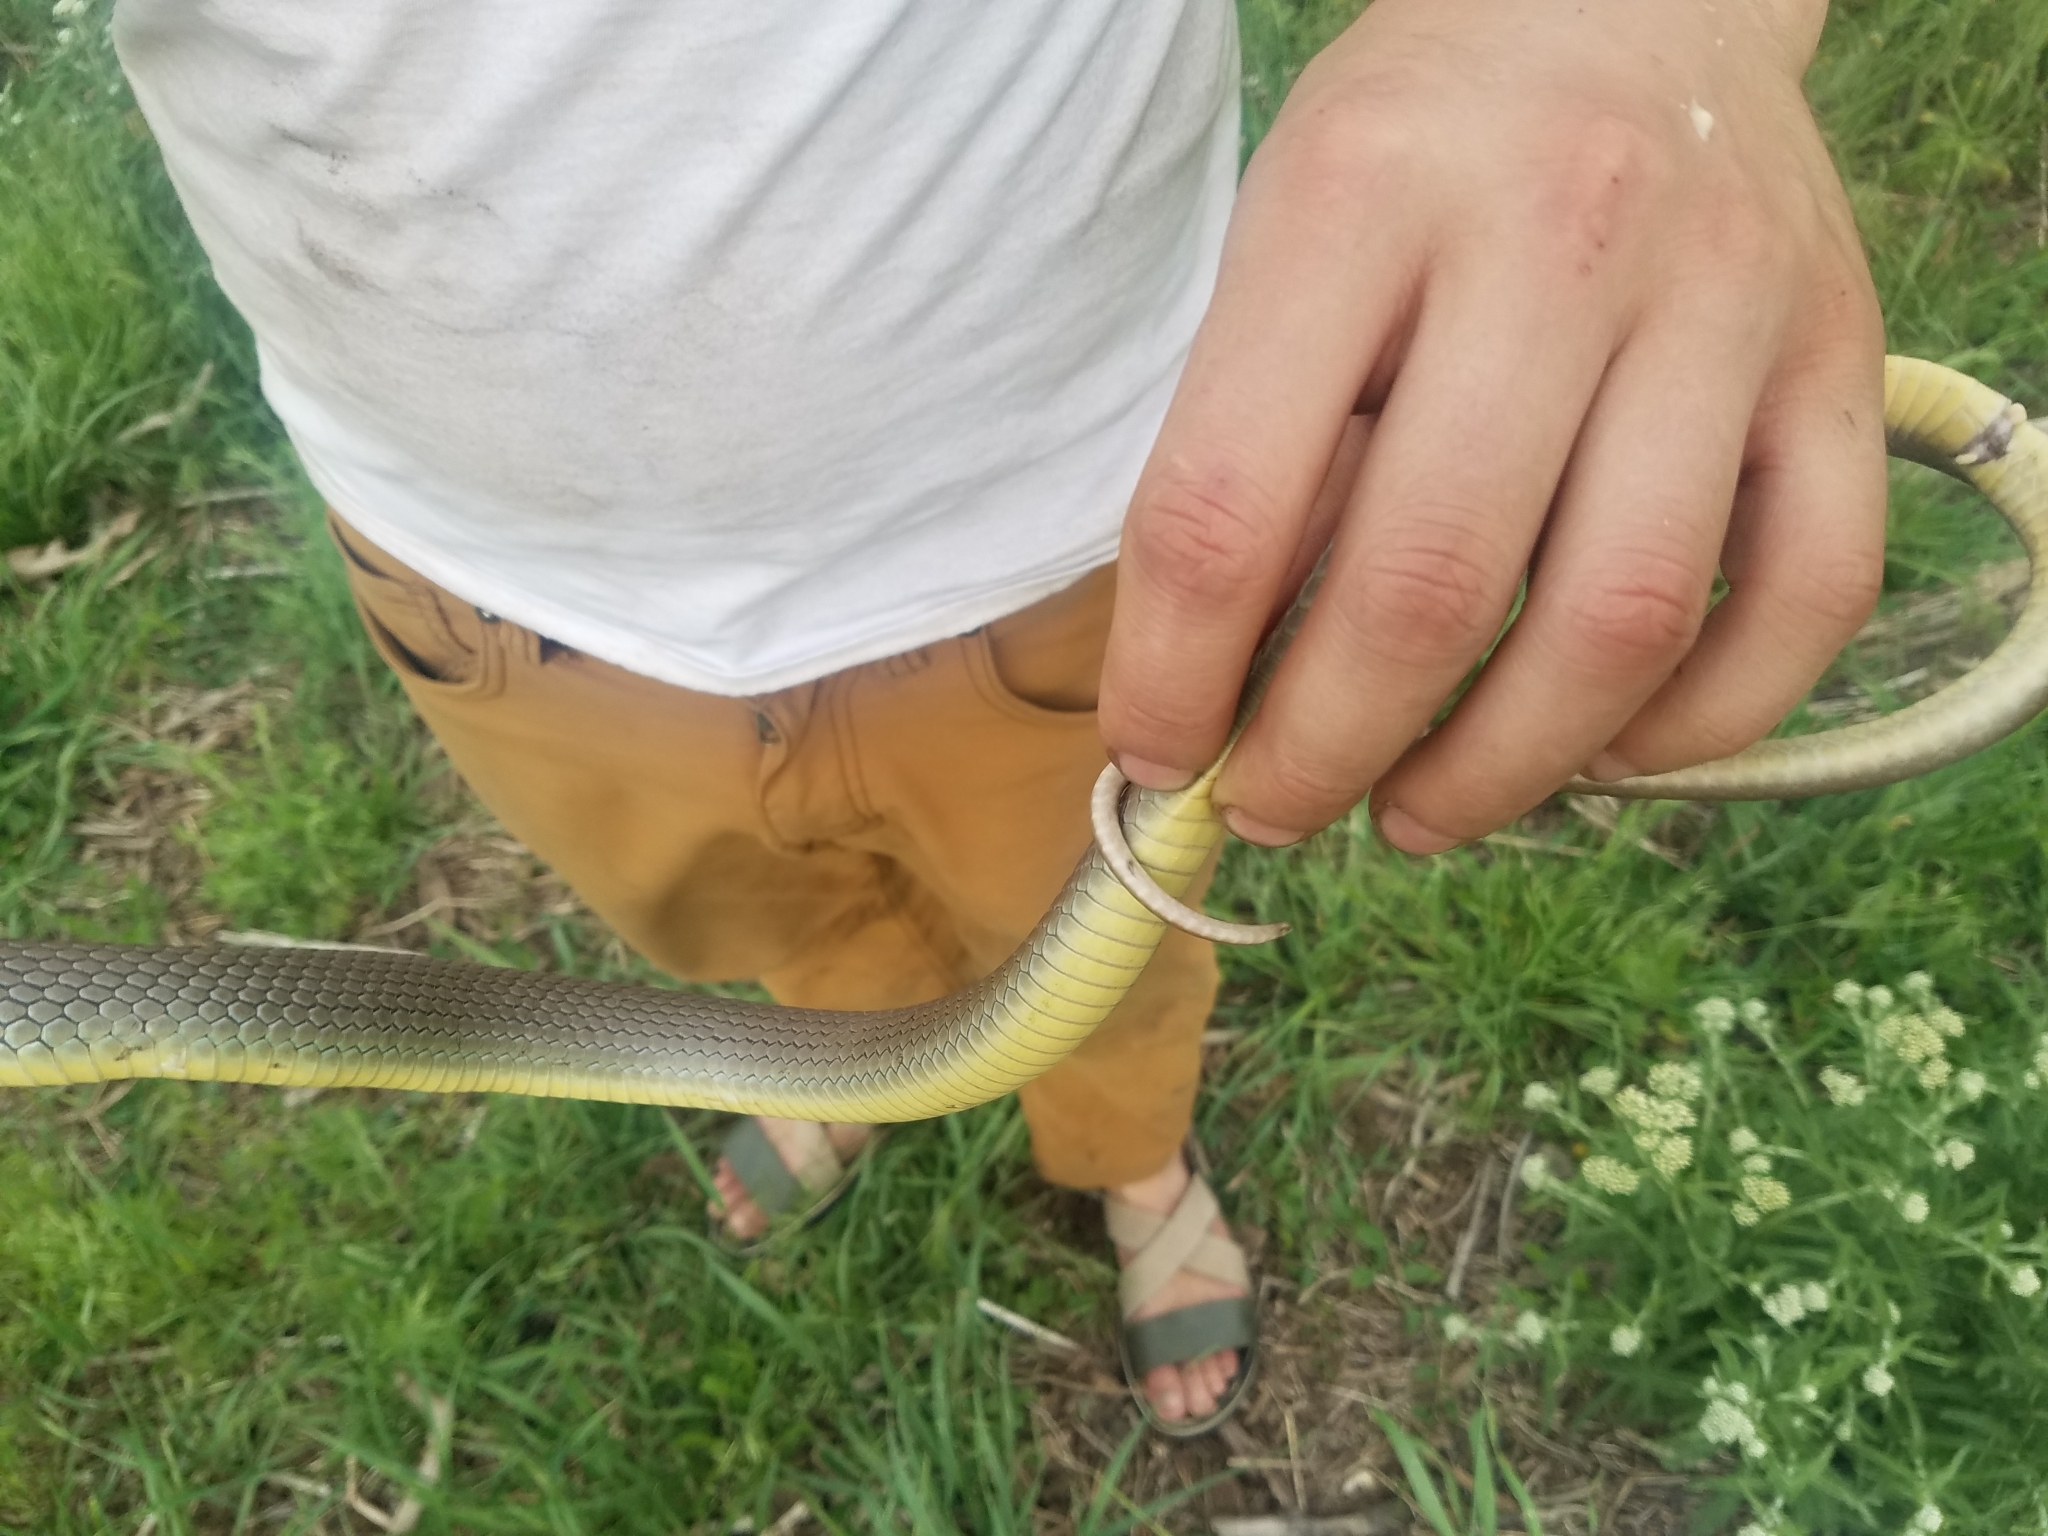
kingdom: Animalia
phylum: Chordata
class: Squamata
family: Colubridae
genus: Coluber
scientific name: Coluber constrictor
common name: Eastern racer
